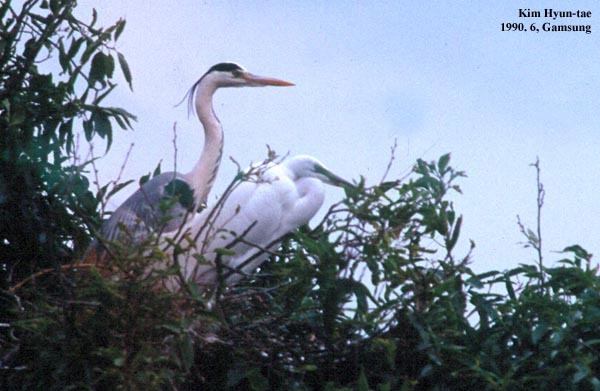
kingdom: Animalia
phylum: Chordata
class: Aves
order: Pelecaniformes
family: Ardeidae
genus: Ardea
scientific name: Ardea modesta
